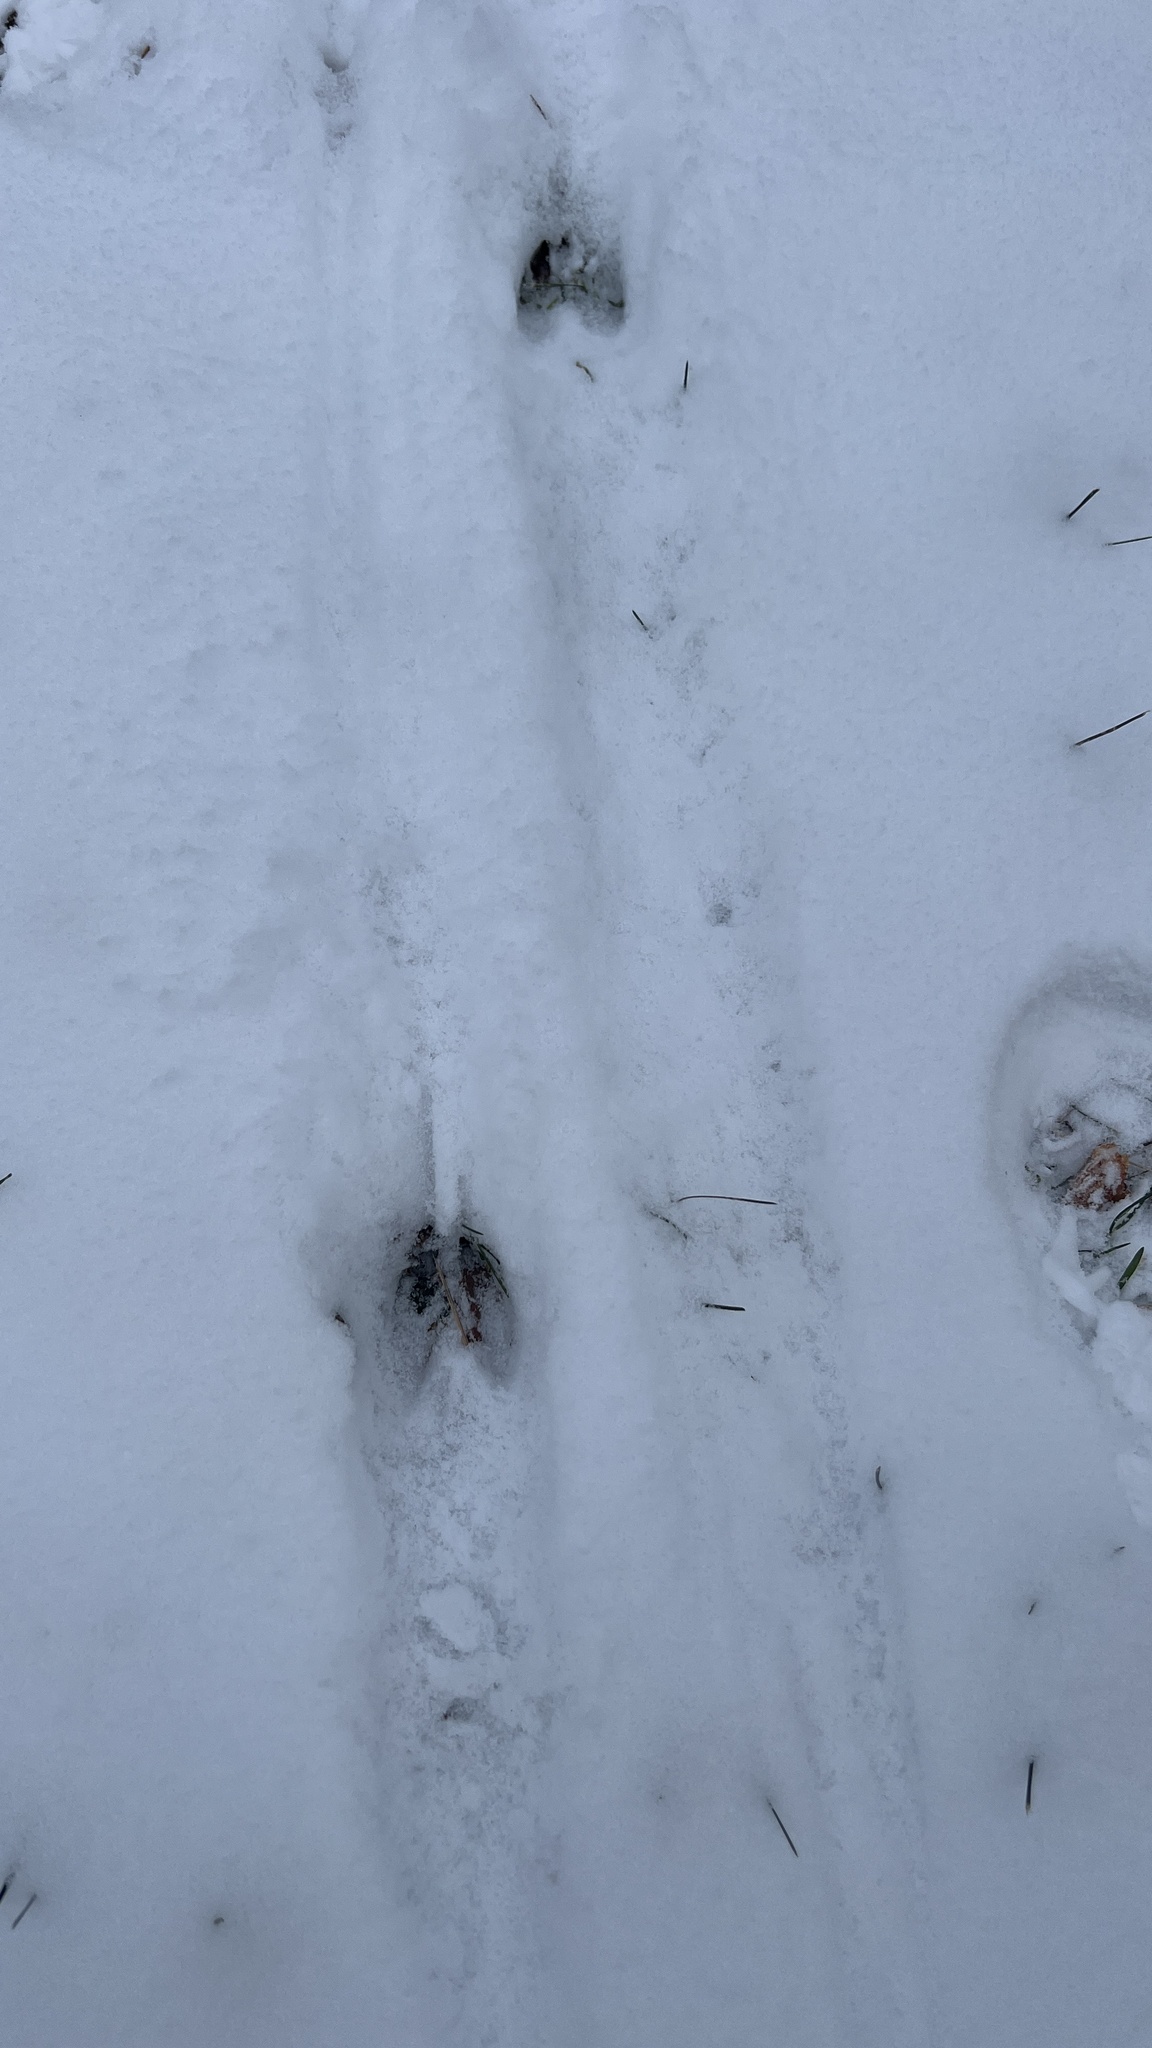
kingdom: Animalia
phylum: Chordata
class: Mammalia
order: Artiodactyla
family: Cervidae
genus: Odocoileus
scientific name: Odocoileus virginianus
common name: White-tailed deer
